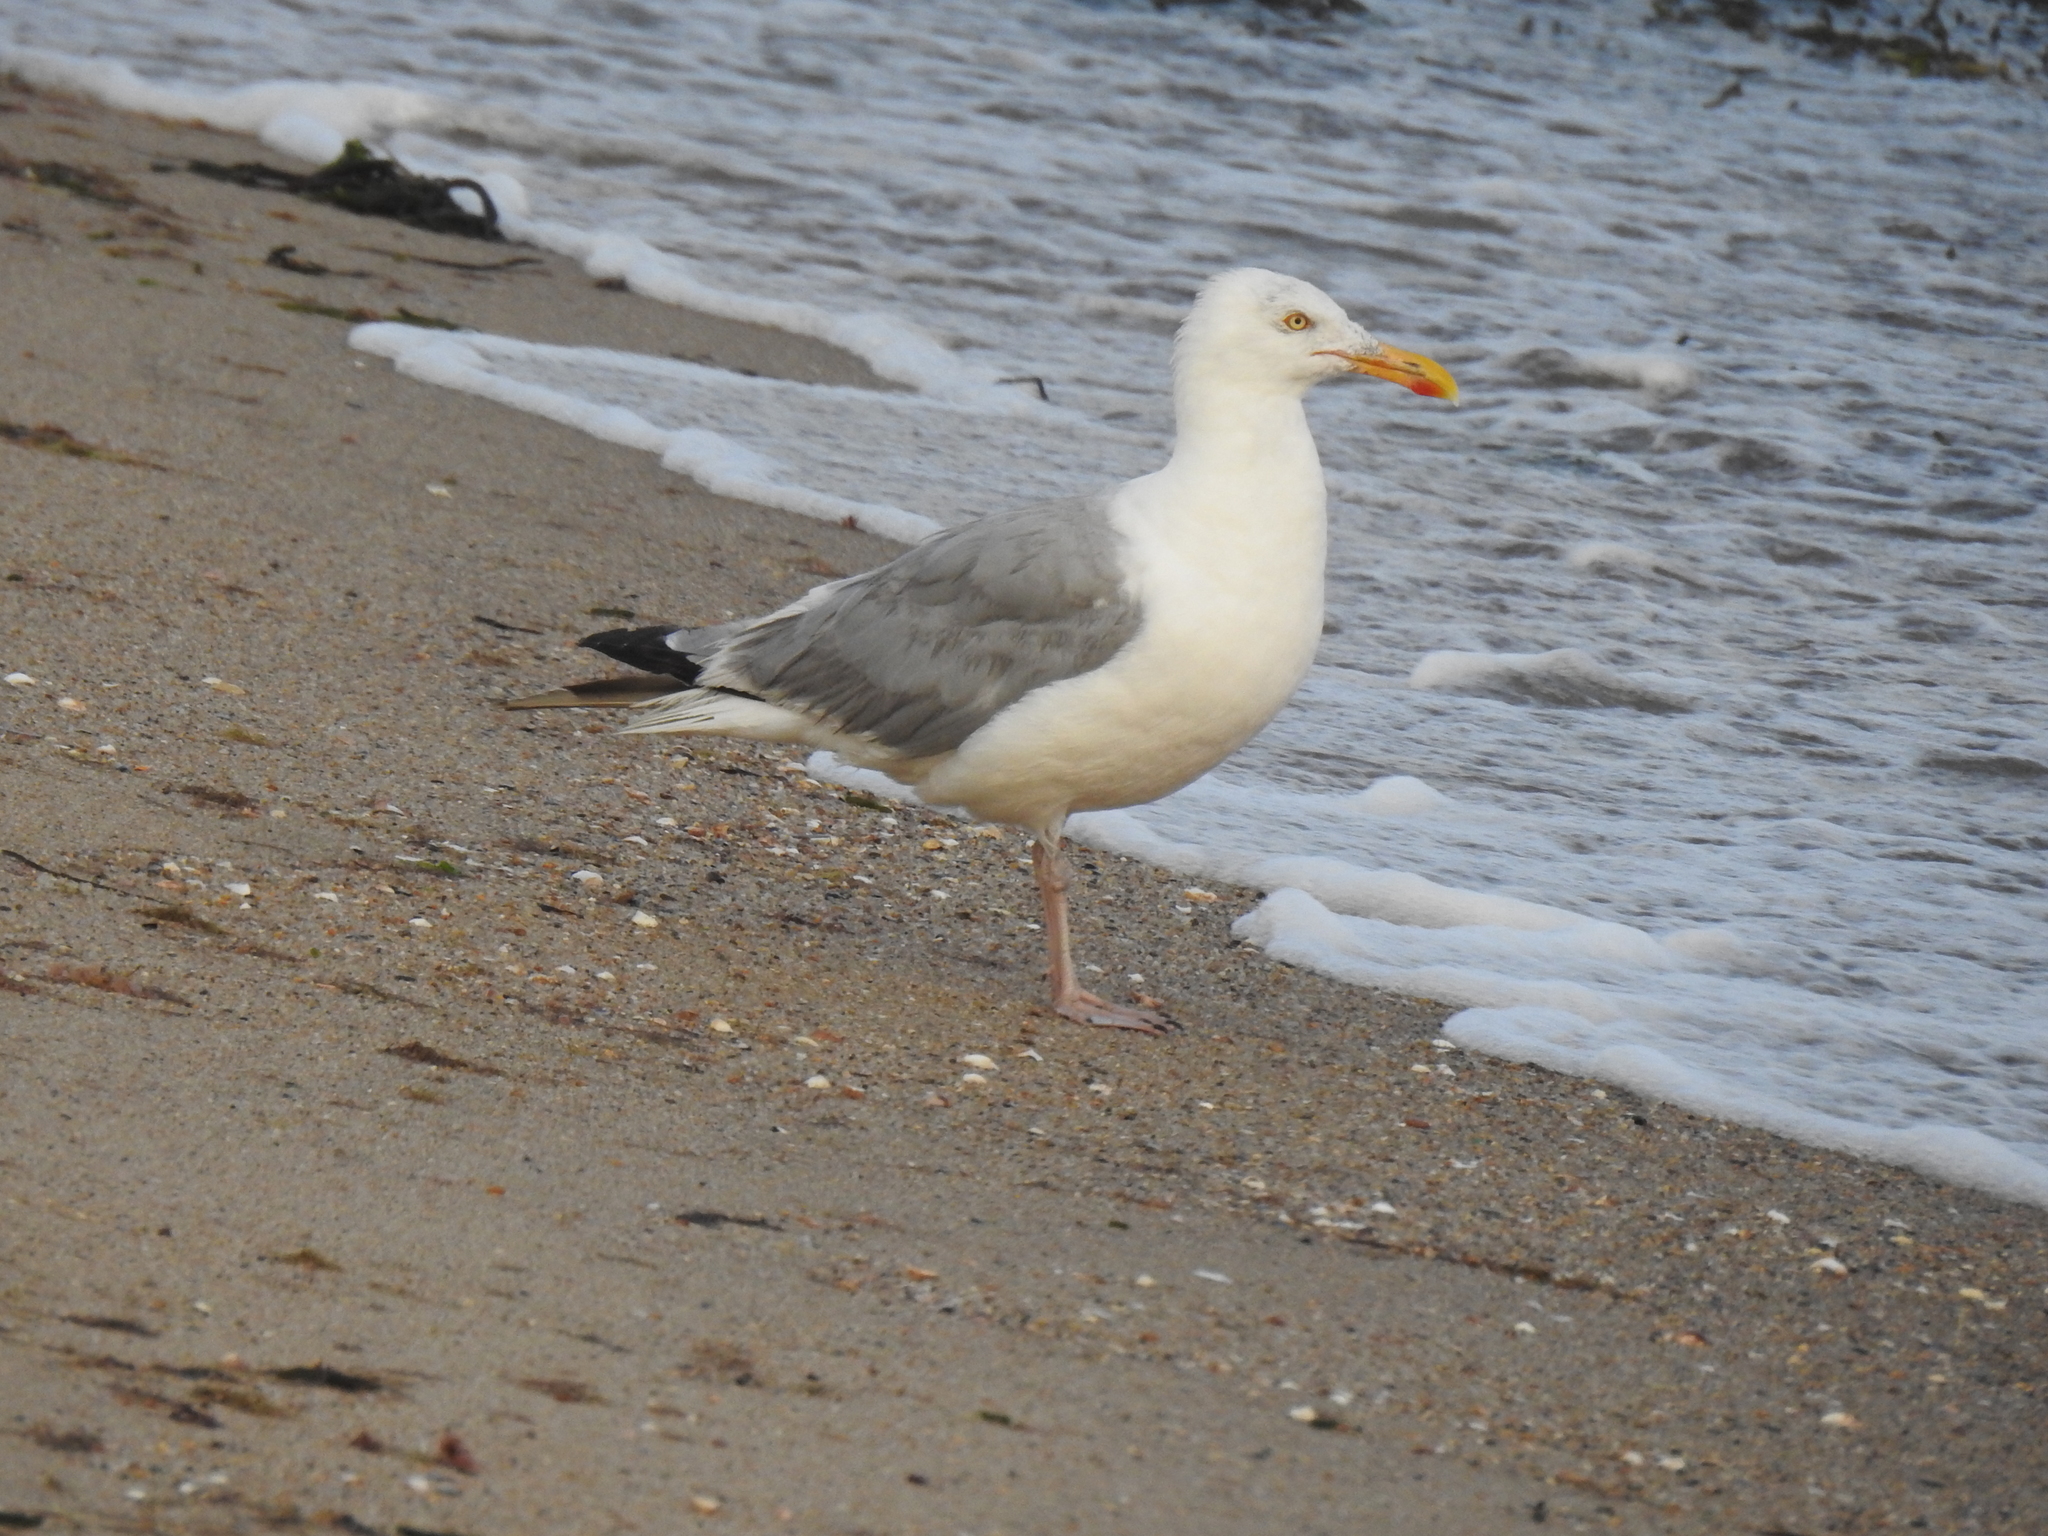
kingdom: Animalia
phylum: Chordata
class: Aves
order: Charadriiformes
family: Laridae
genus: Larus
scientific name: Larus argentatus
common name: Herring gull
